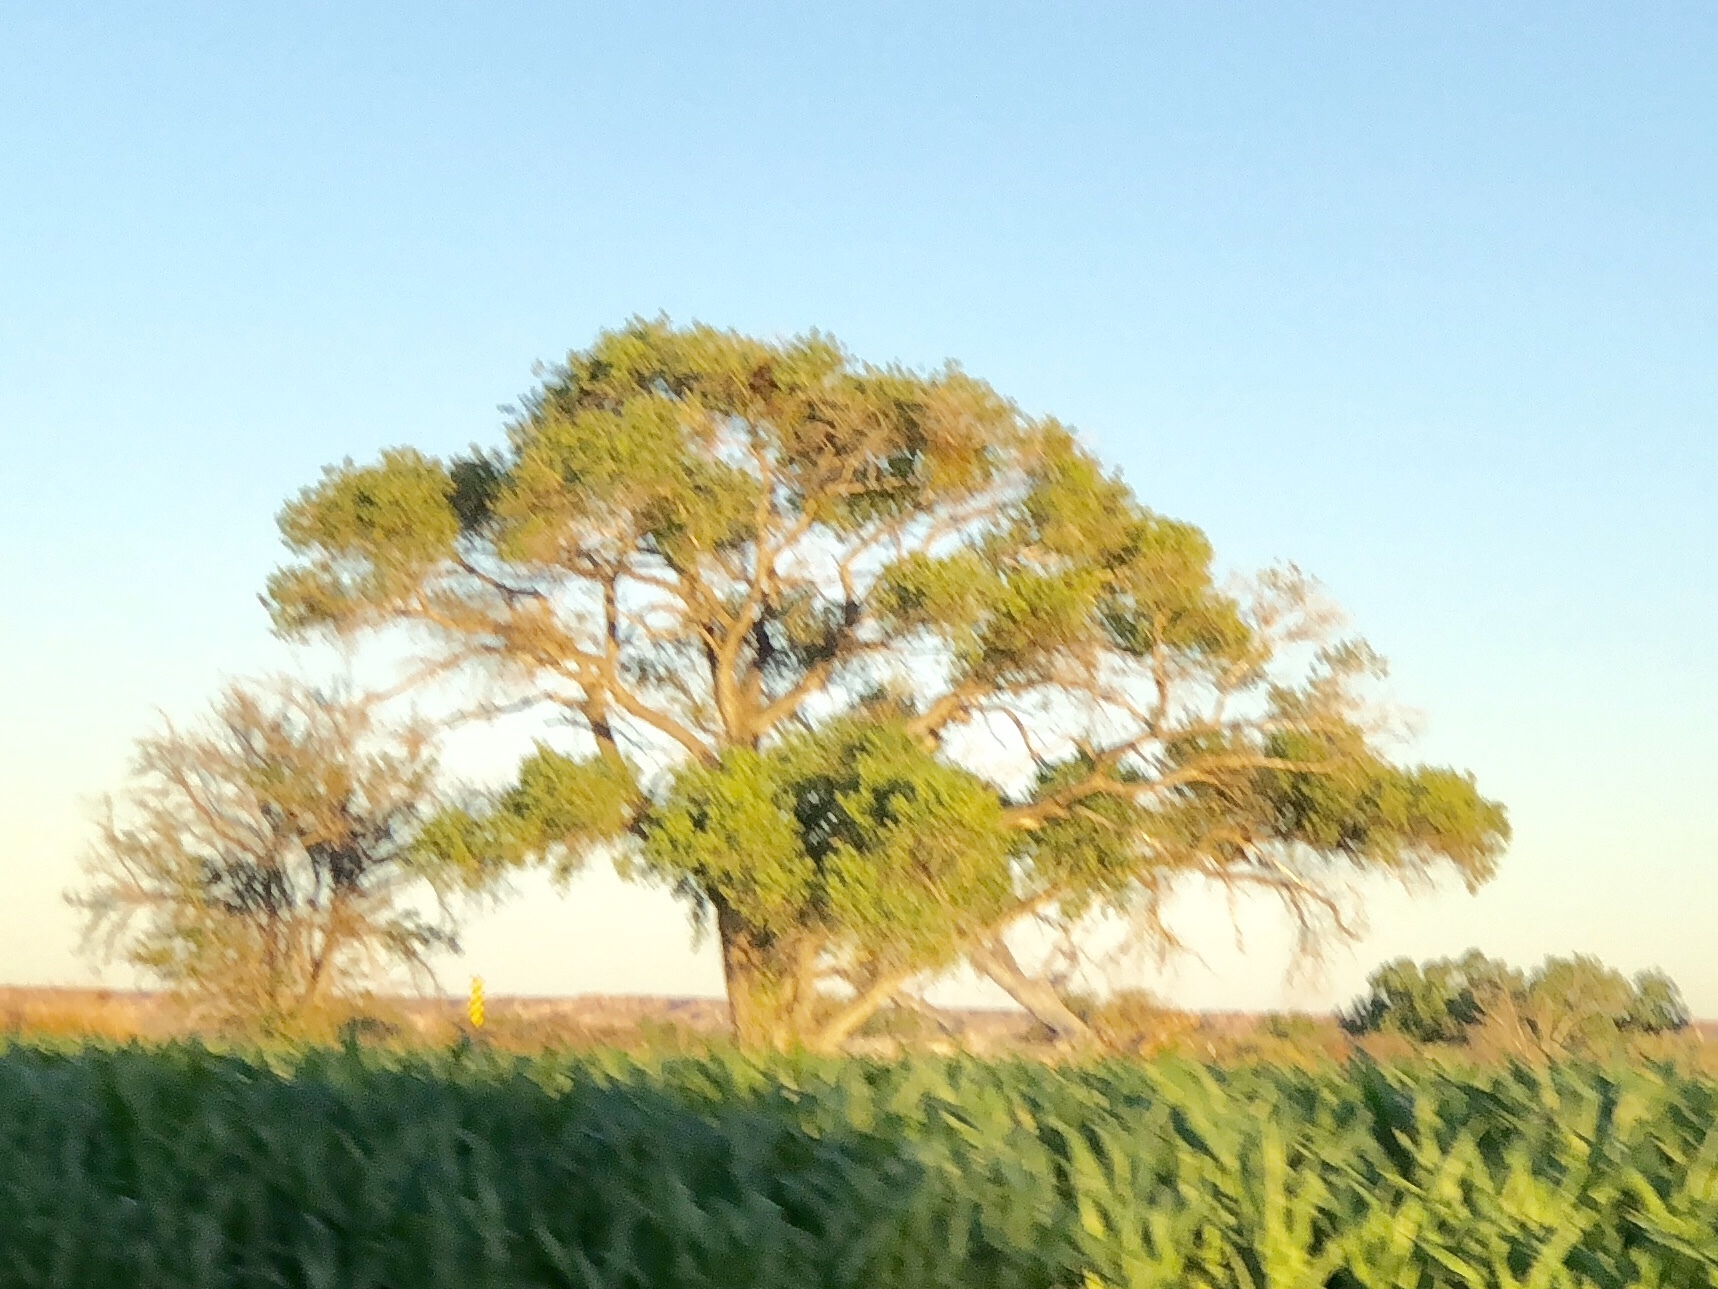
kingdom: Plantae
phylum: Tracheophyta
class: Magnoliopsida
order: Malpighiales
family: Salicaceae
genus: Populus
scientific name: Populus fremontii
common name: Fremont's cottonwood
